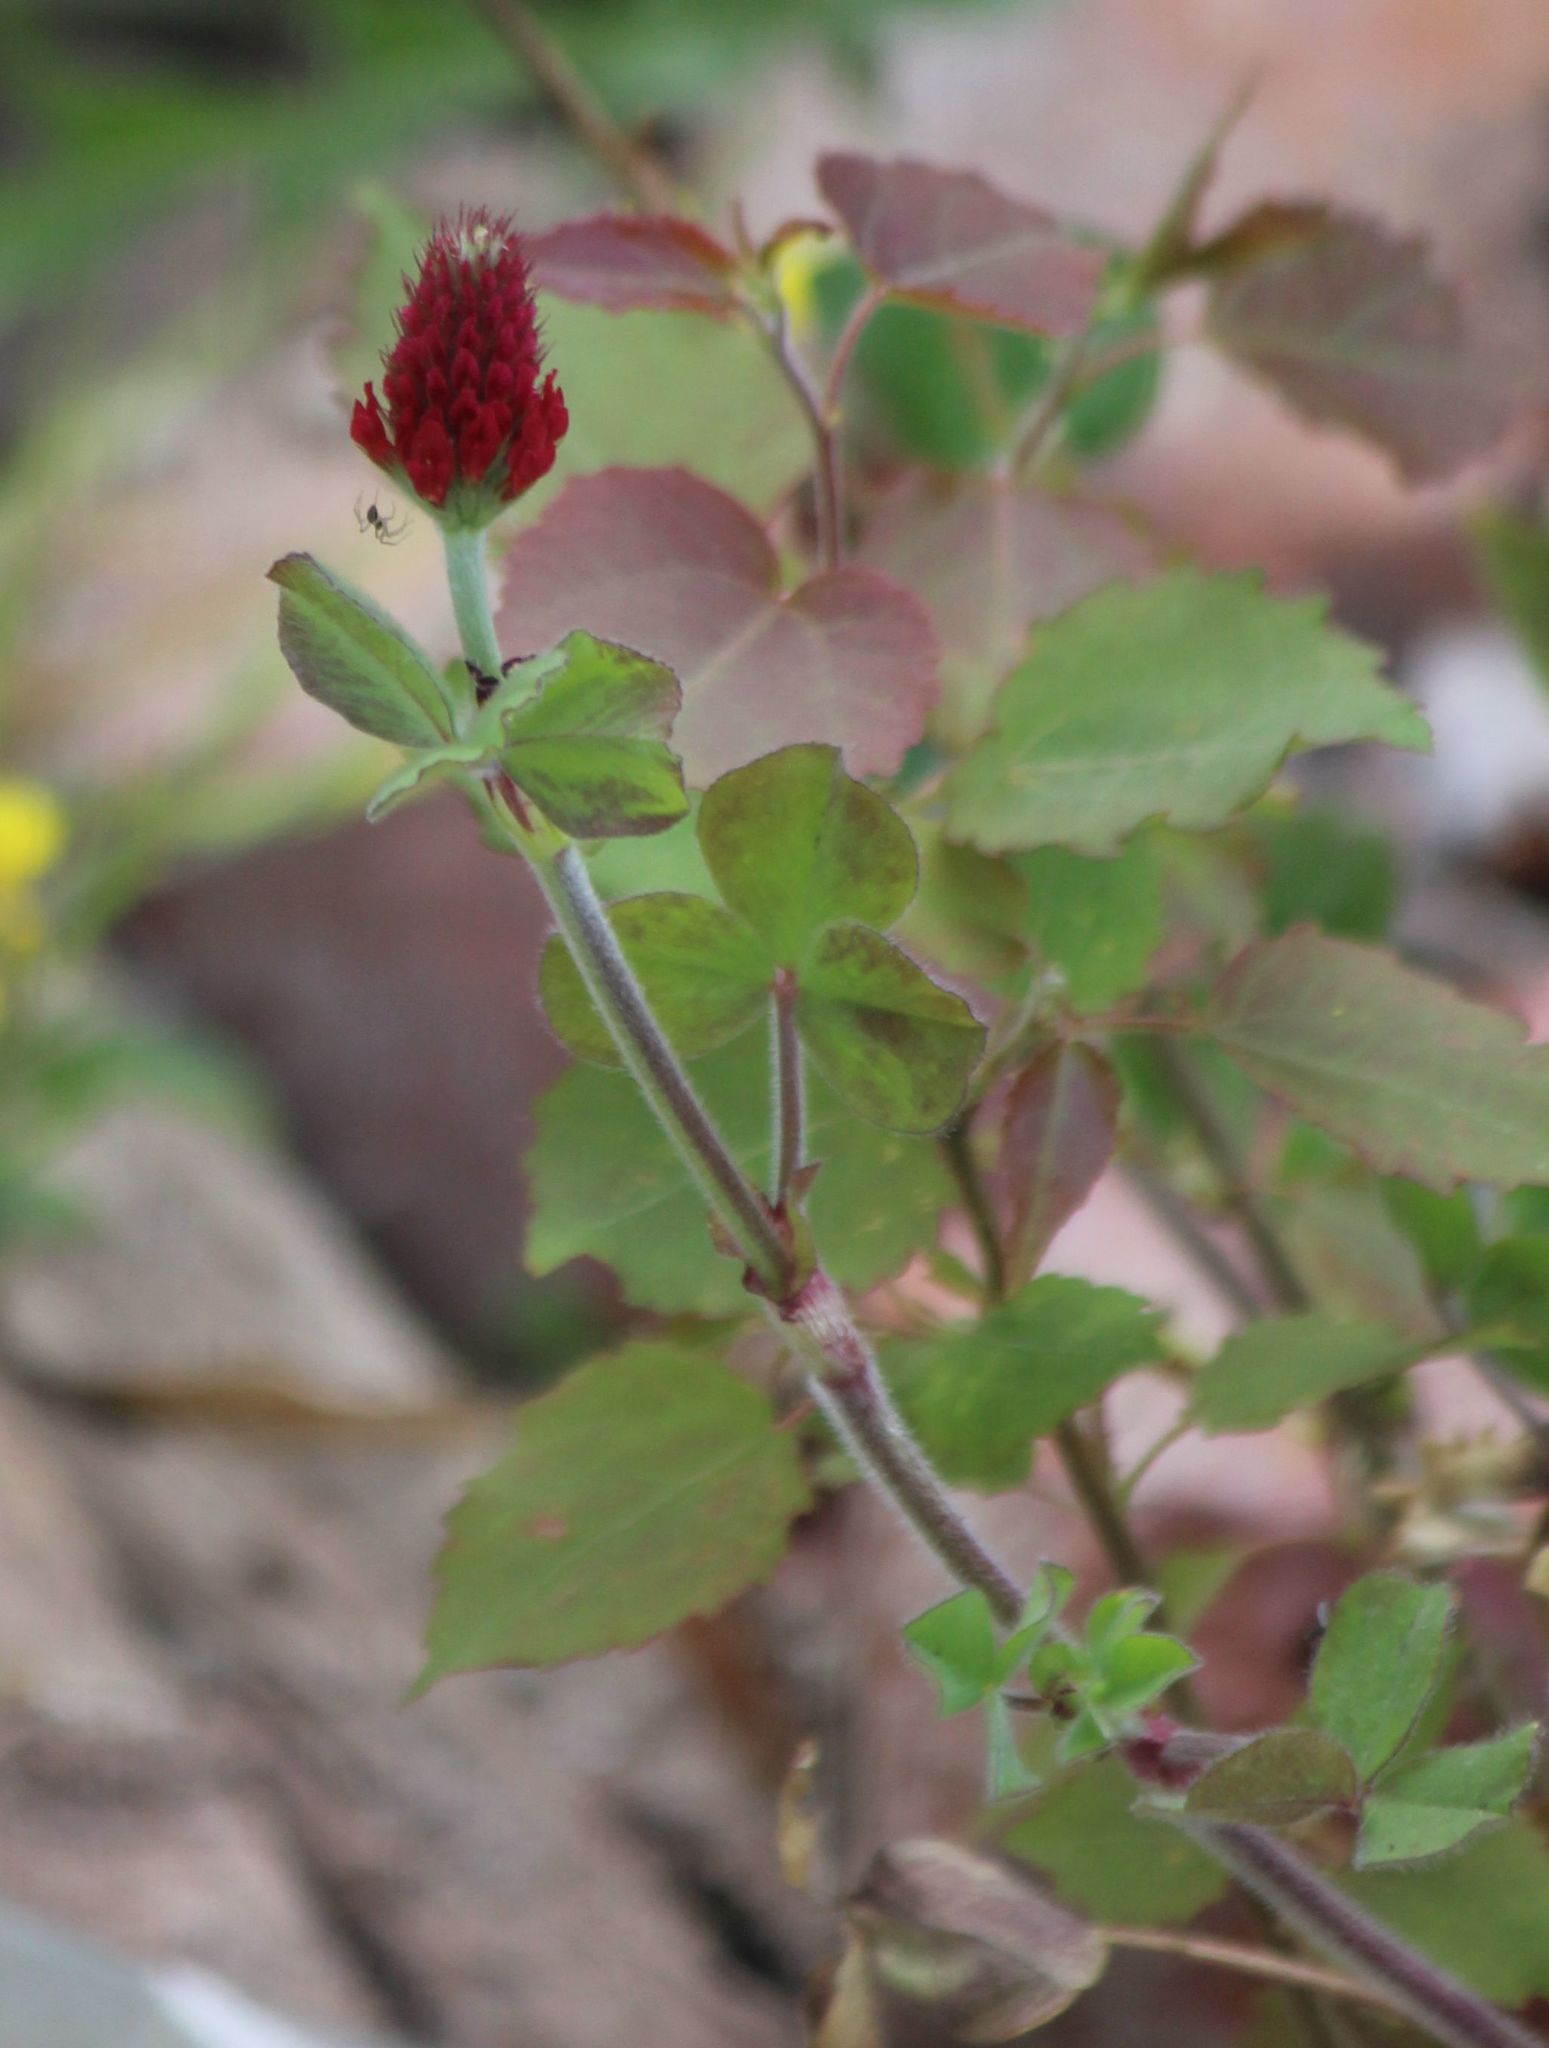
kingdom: Plantae
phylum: Tracheophyta
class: Magnoliopsida
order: Fabales
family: Fabaceae
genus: Trifolium
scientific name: Trifolium incarnatum
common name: Crimson clover
